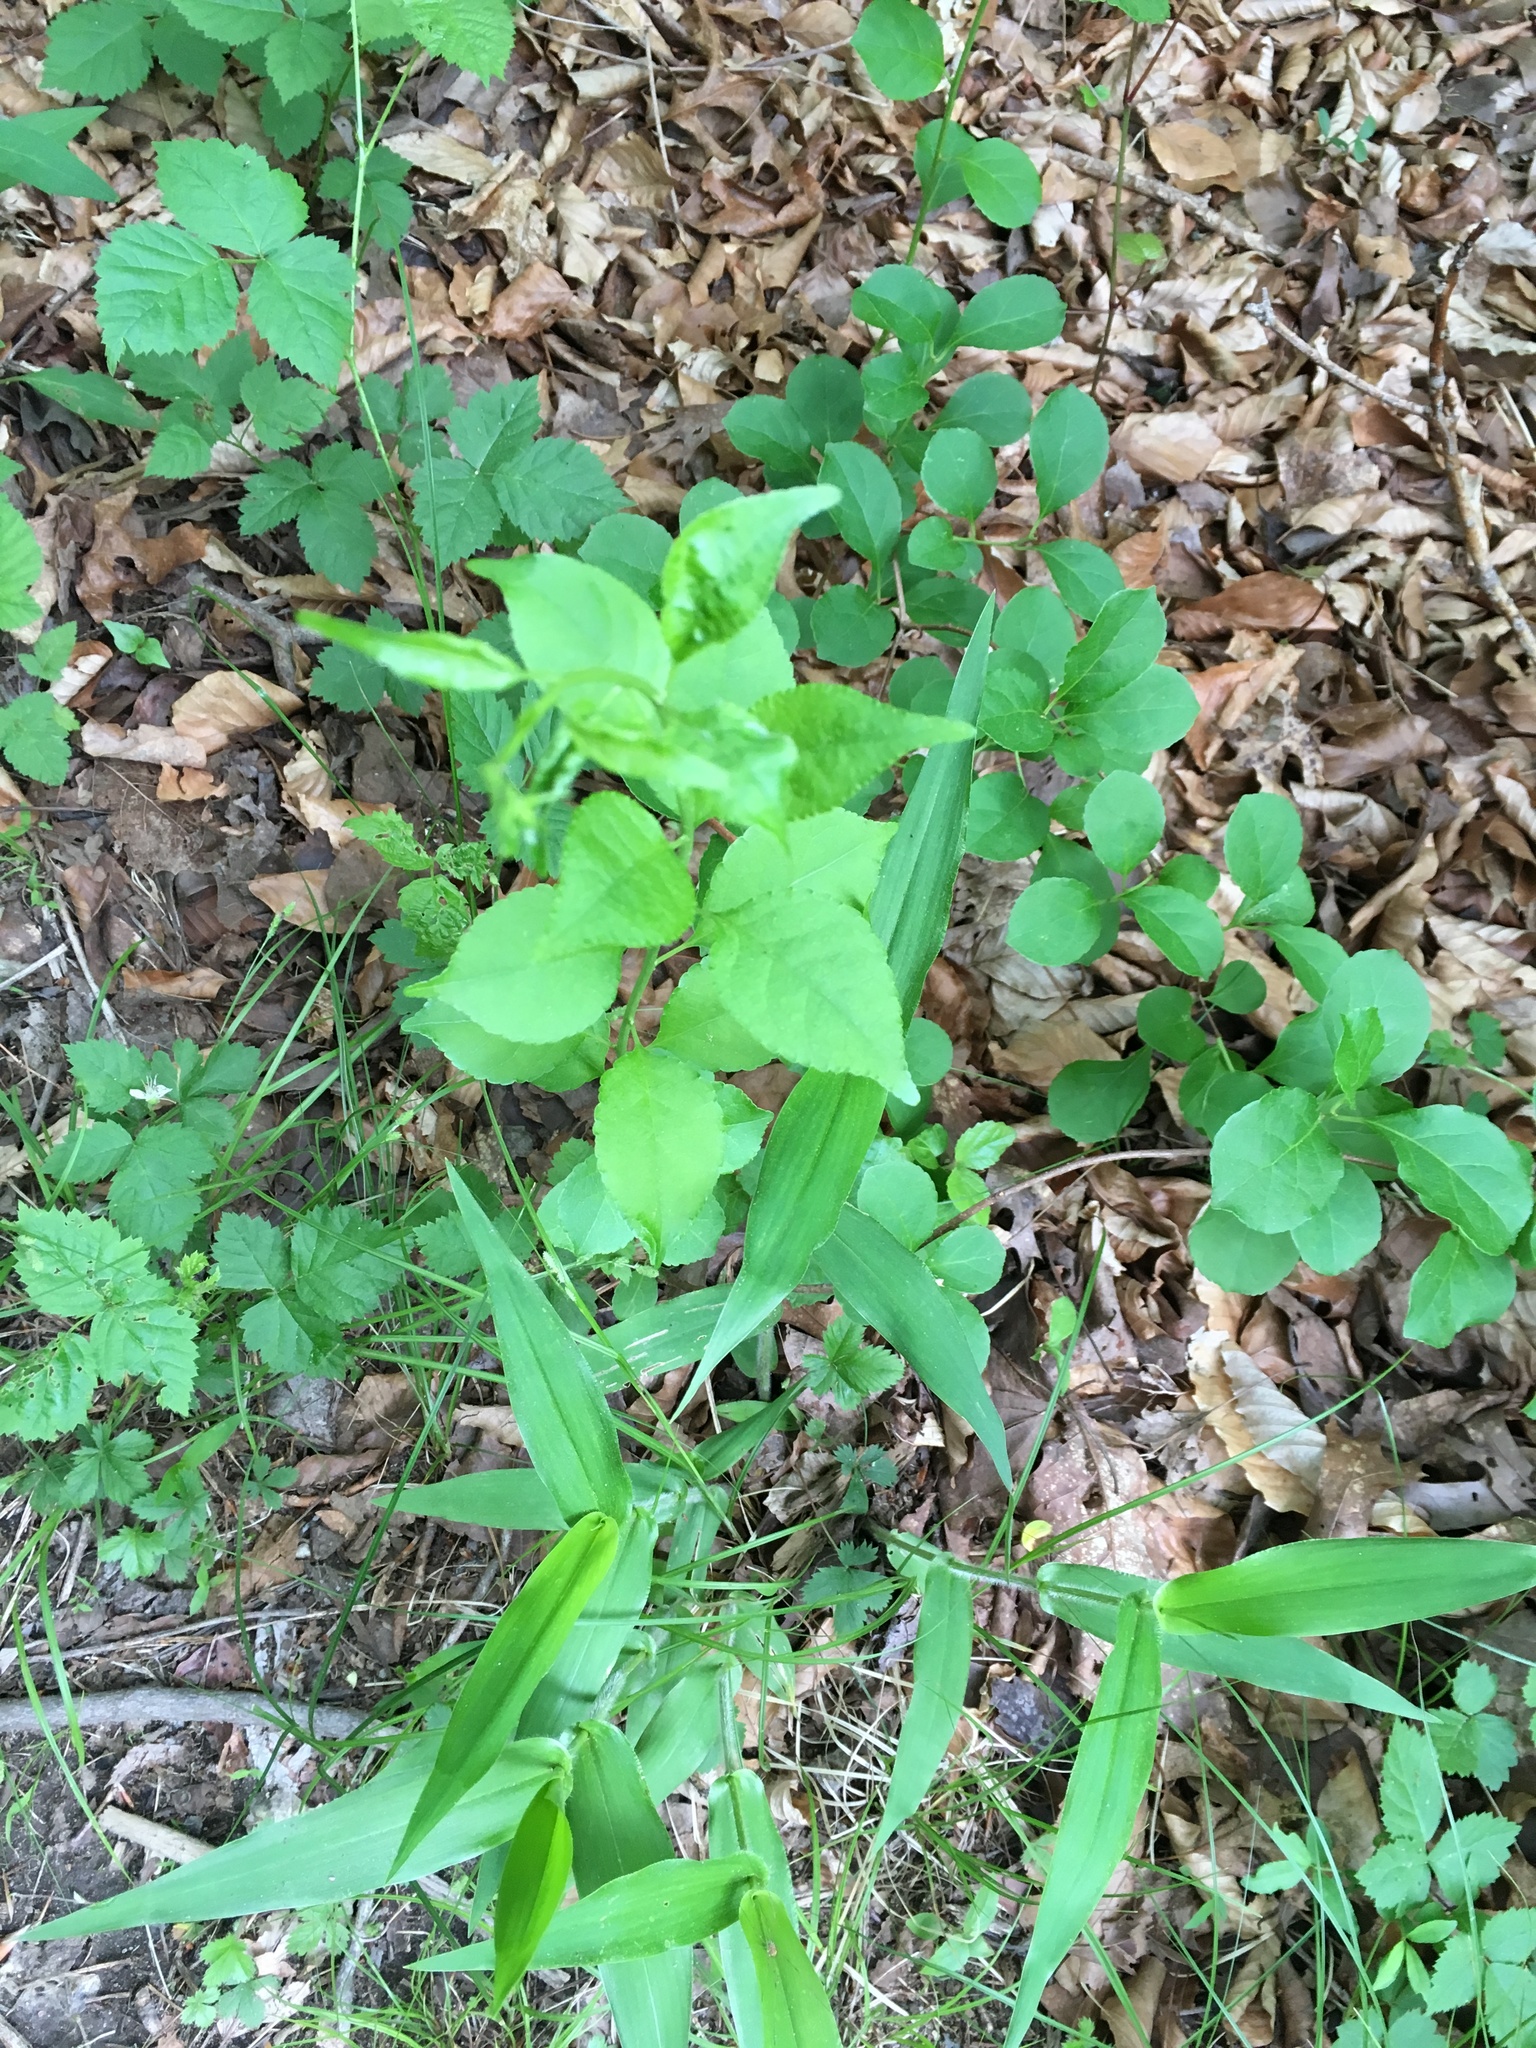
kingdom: Plantae
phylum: Tracheophyta
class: Magnoliopsida
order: Celastrales
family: Celastraceae
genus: Celastrus
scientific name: Celastrus orbiculatus
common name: Oriental bittersweet
